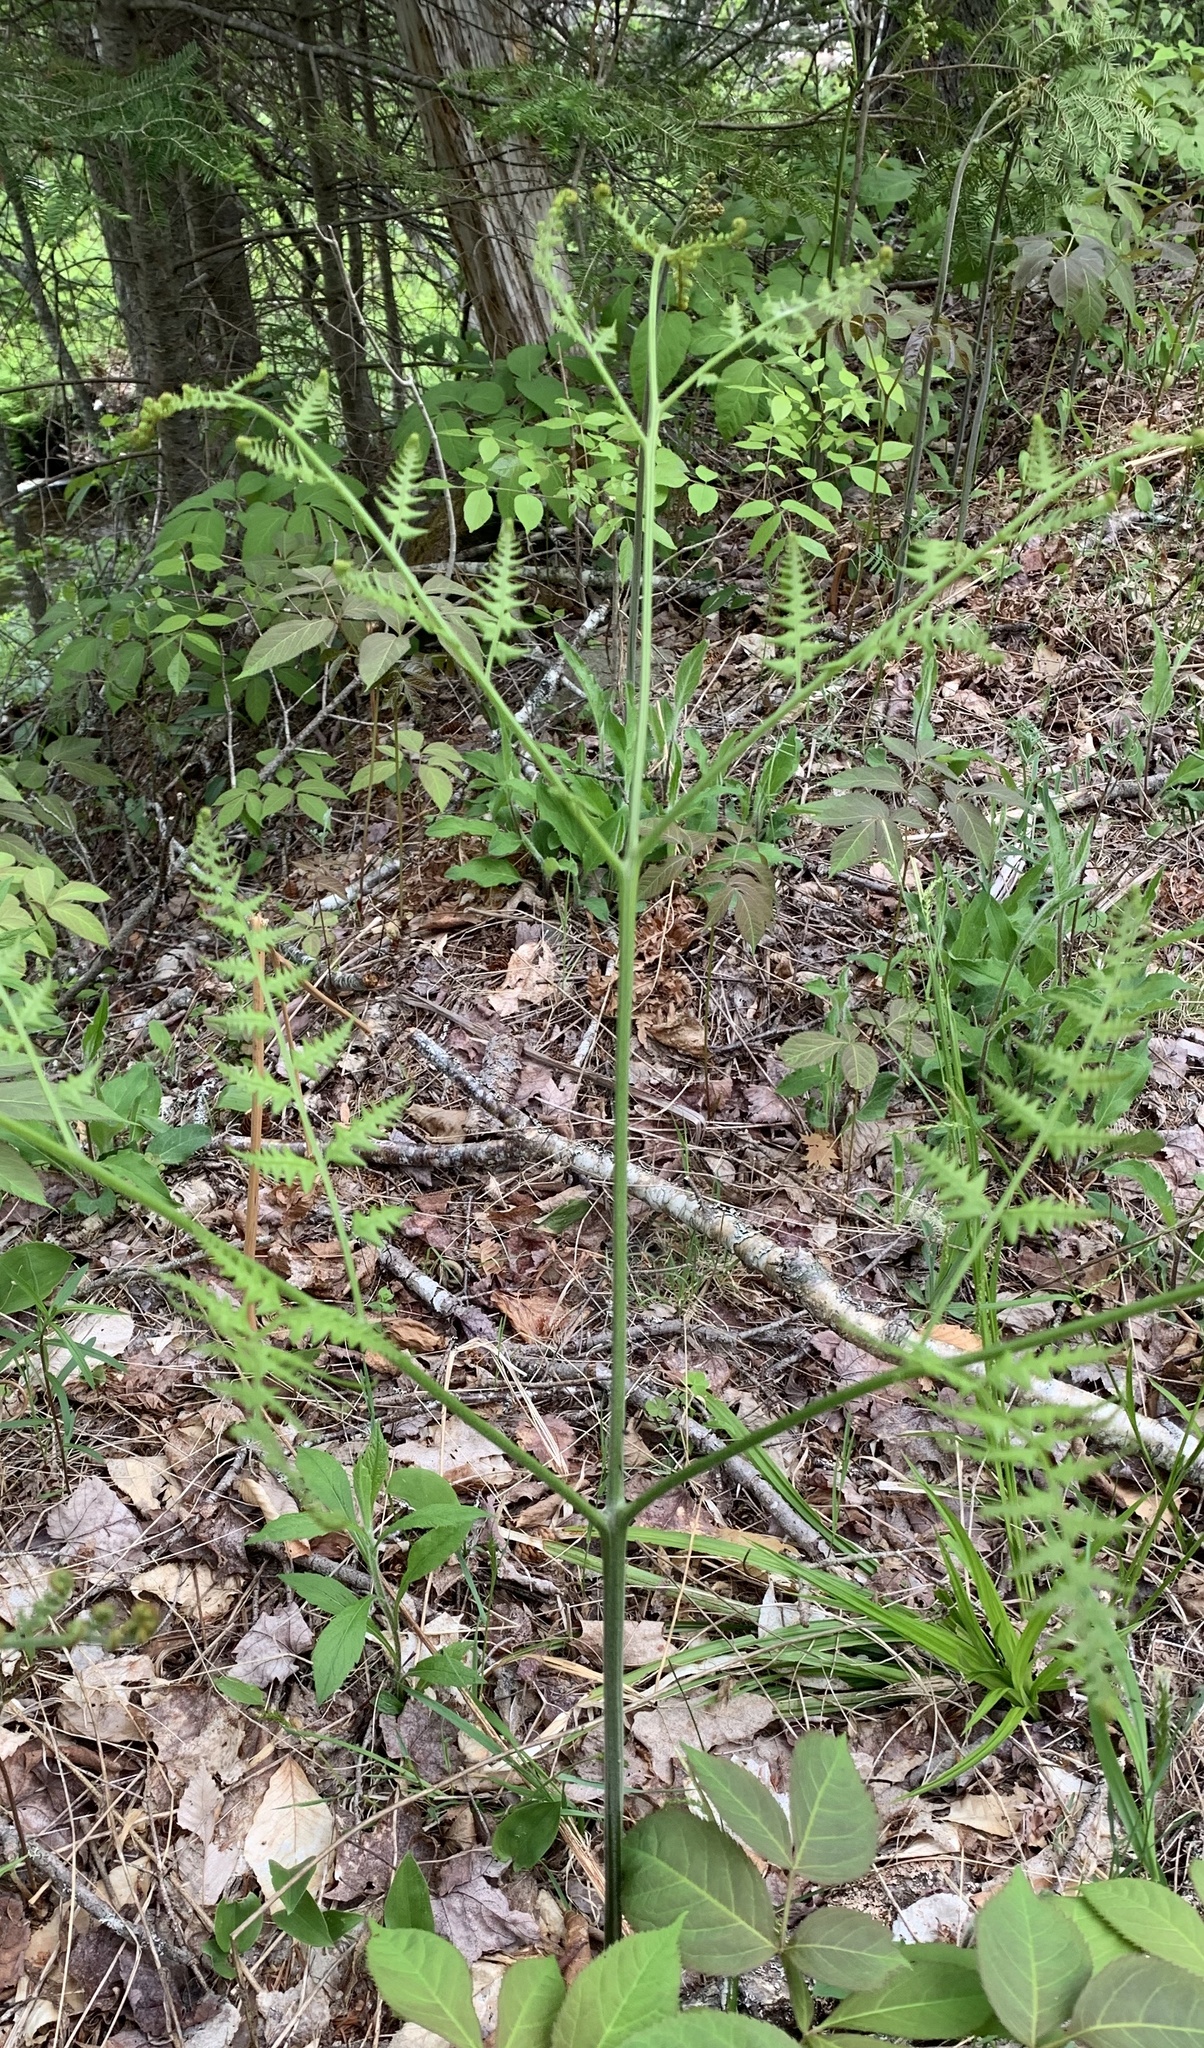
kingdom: Plantae
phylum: Tracheophyta
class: Polypodiopsida
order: Polypodiales
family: Dennstaedtiaceae
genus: Pteridium
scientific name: Pteridium aquilinum
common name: Bracken
